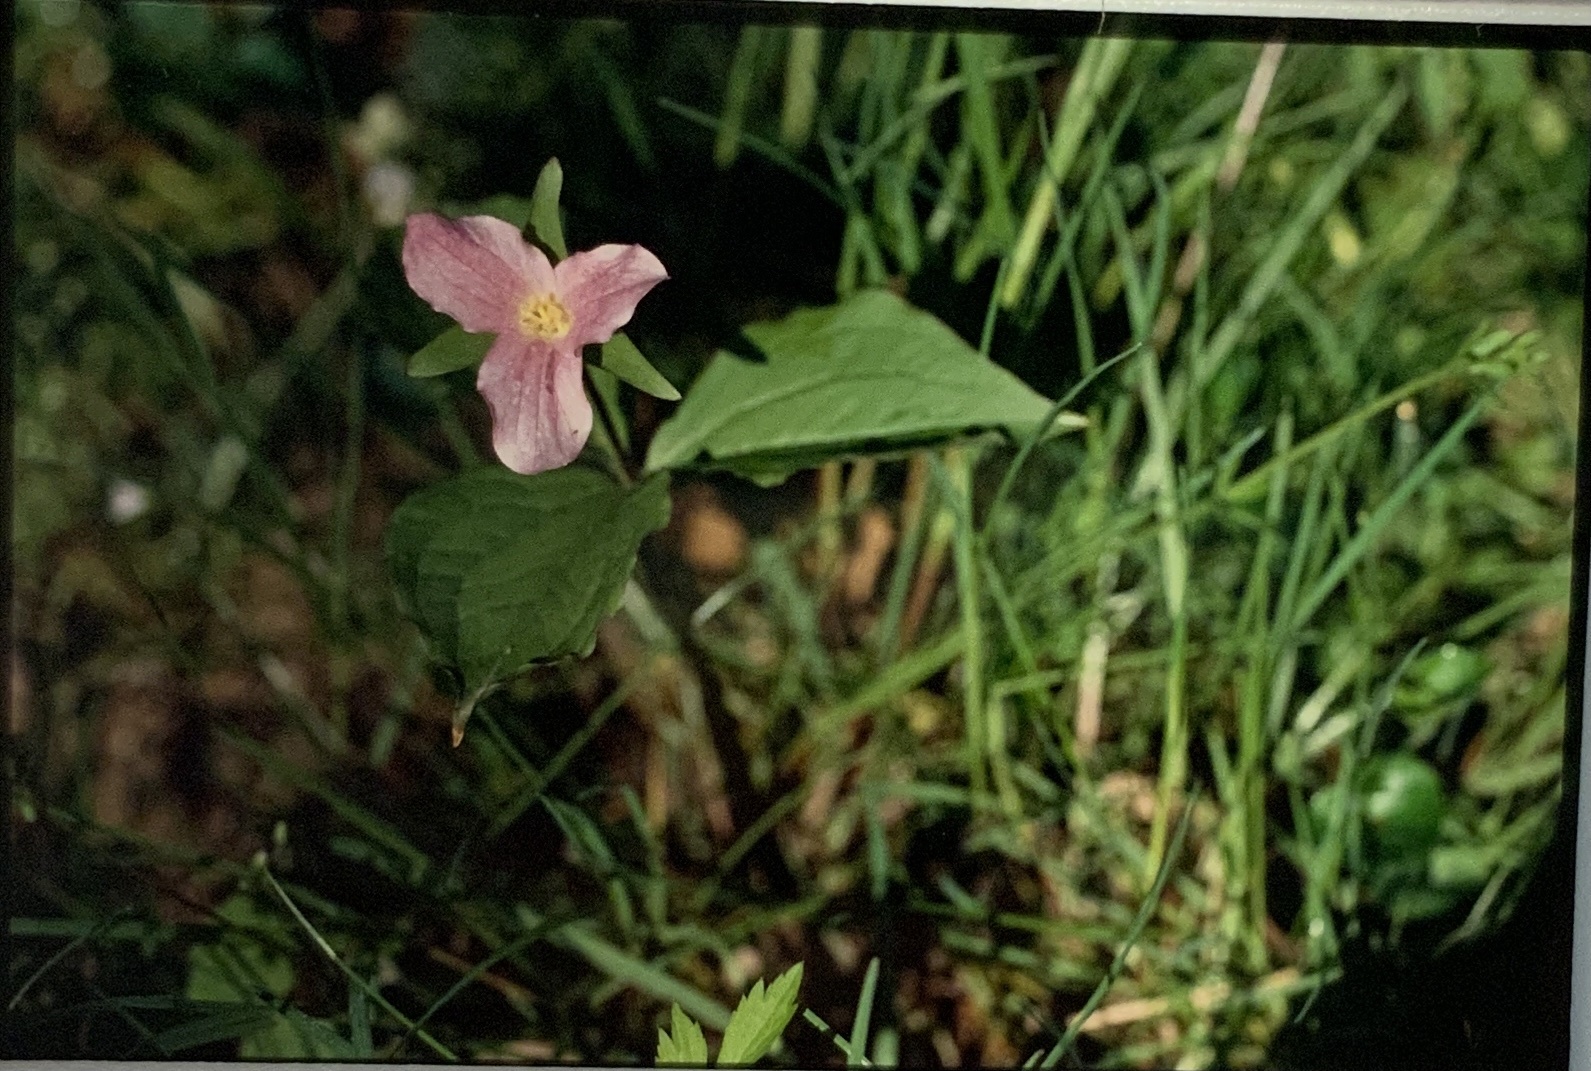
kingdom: Plantae
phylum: Tracheophyta
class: Liliopsida
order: Liliales
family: Melanthiaceae
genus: Trillium
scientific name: Trillium grandiflorum
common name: Great white trillium
